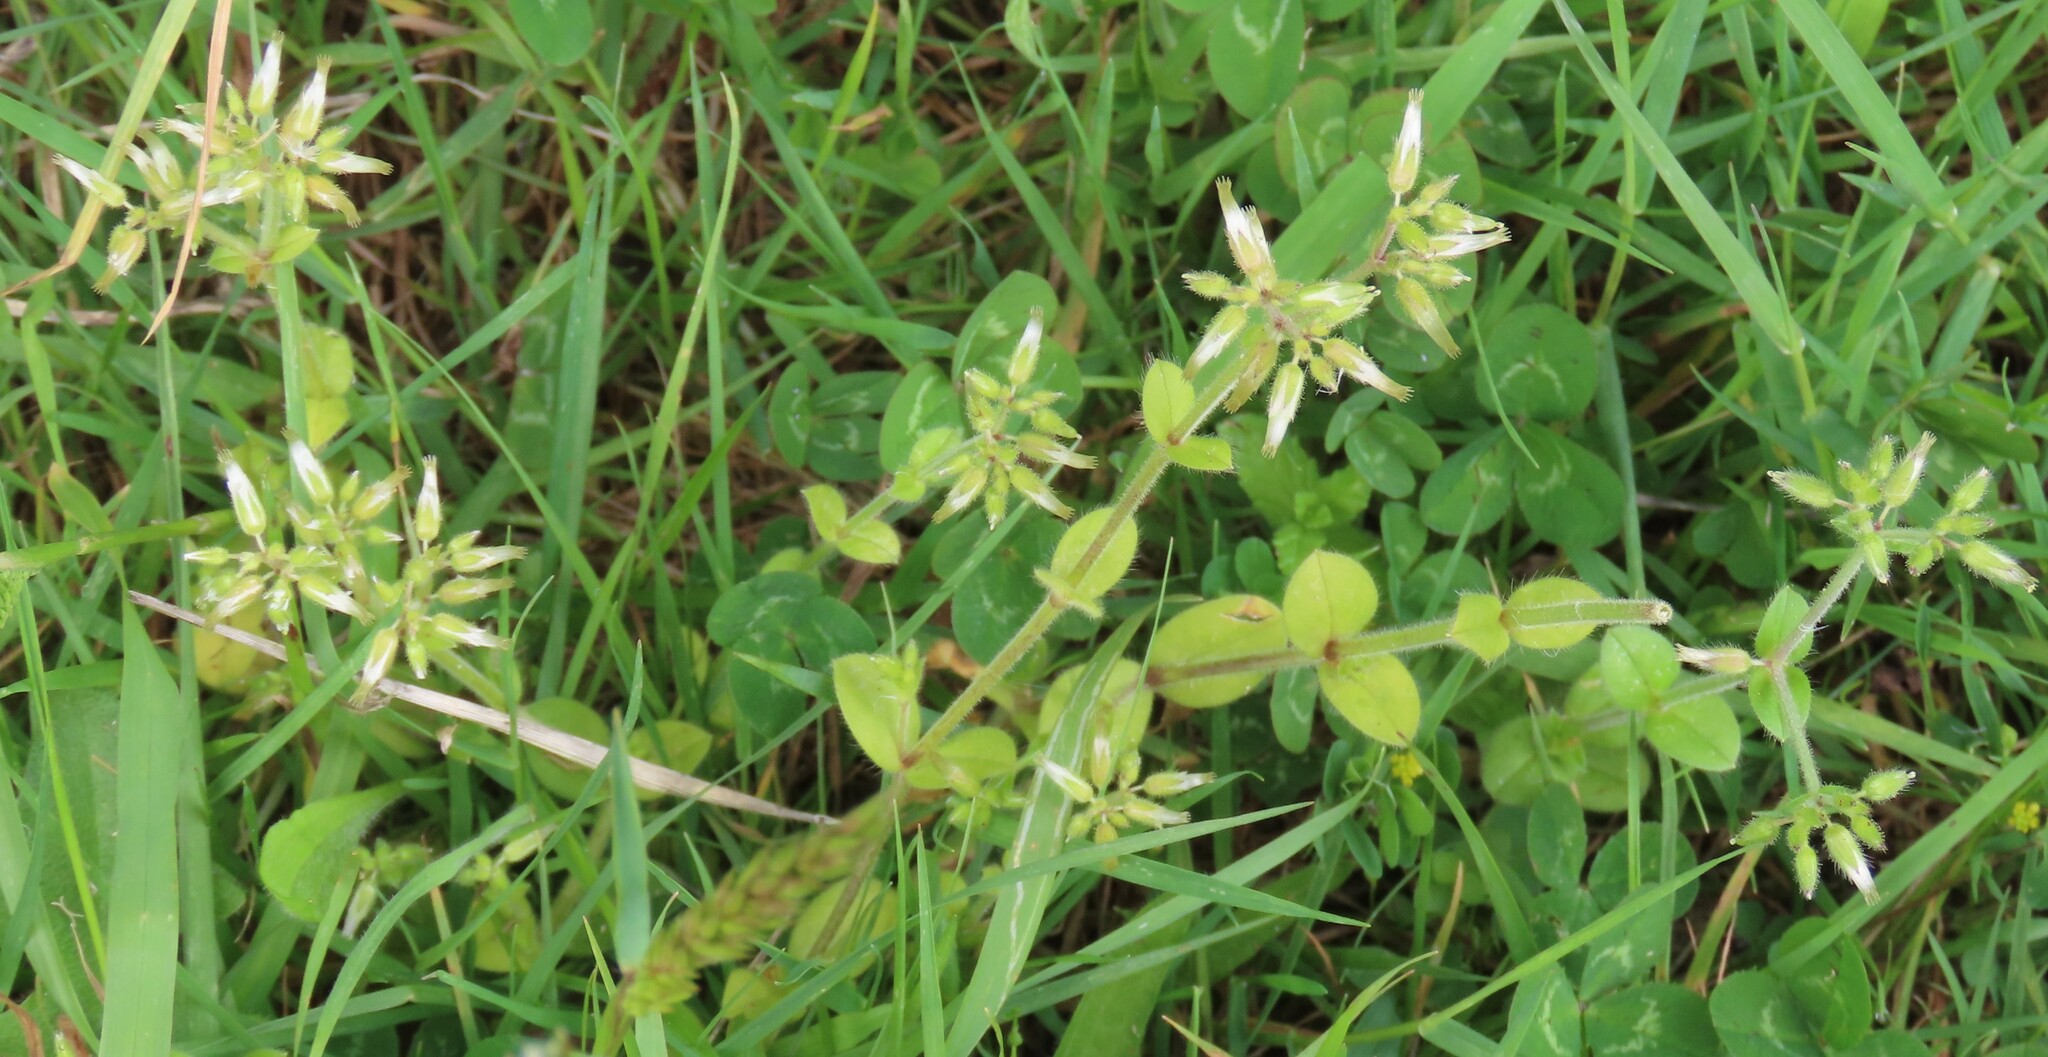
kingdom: Plantae
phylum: Tracheophyta
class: Magnoliopsida
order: Caryophyllales
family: Caryophyllaceae
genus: Cerastium
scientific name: Cerastium glomeratum
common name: Sticky chickweed
